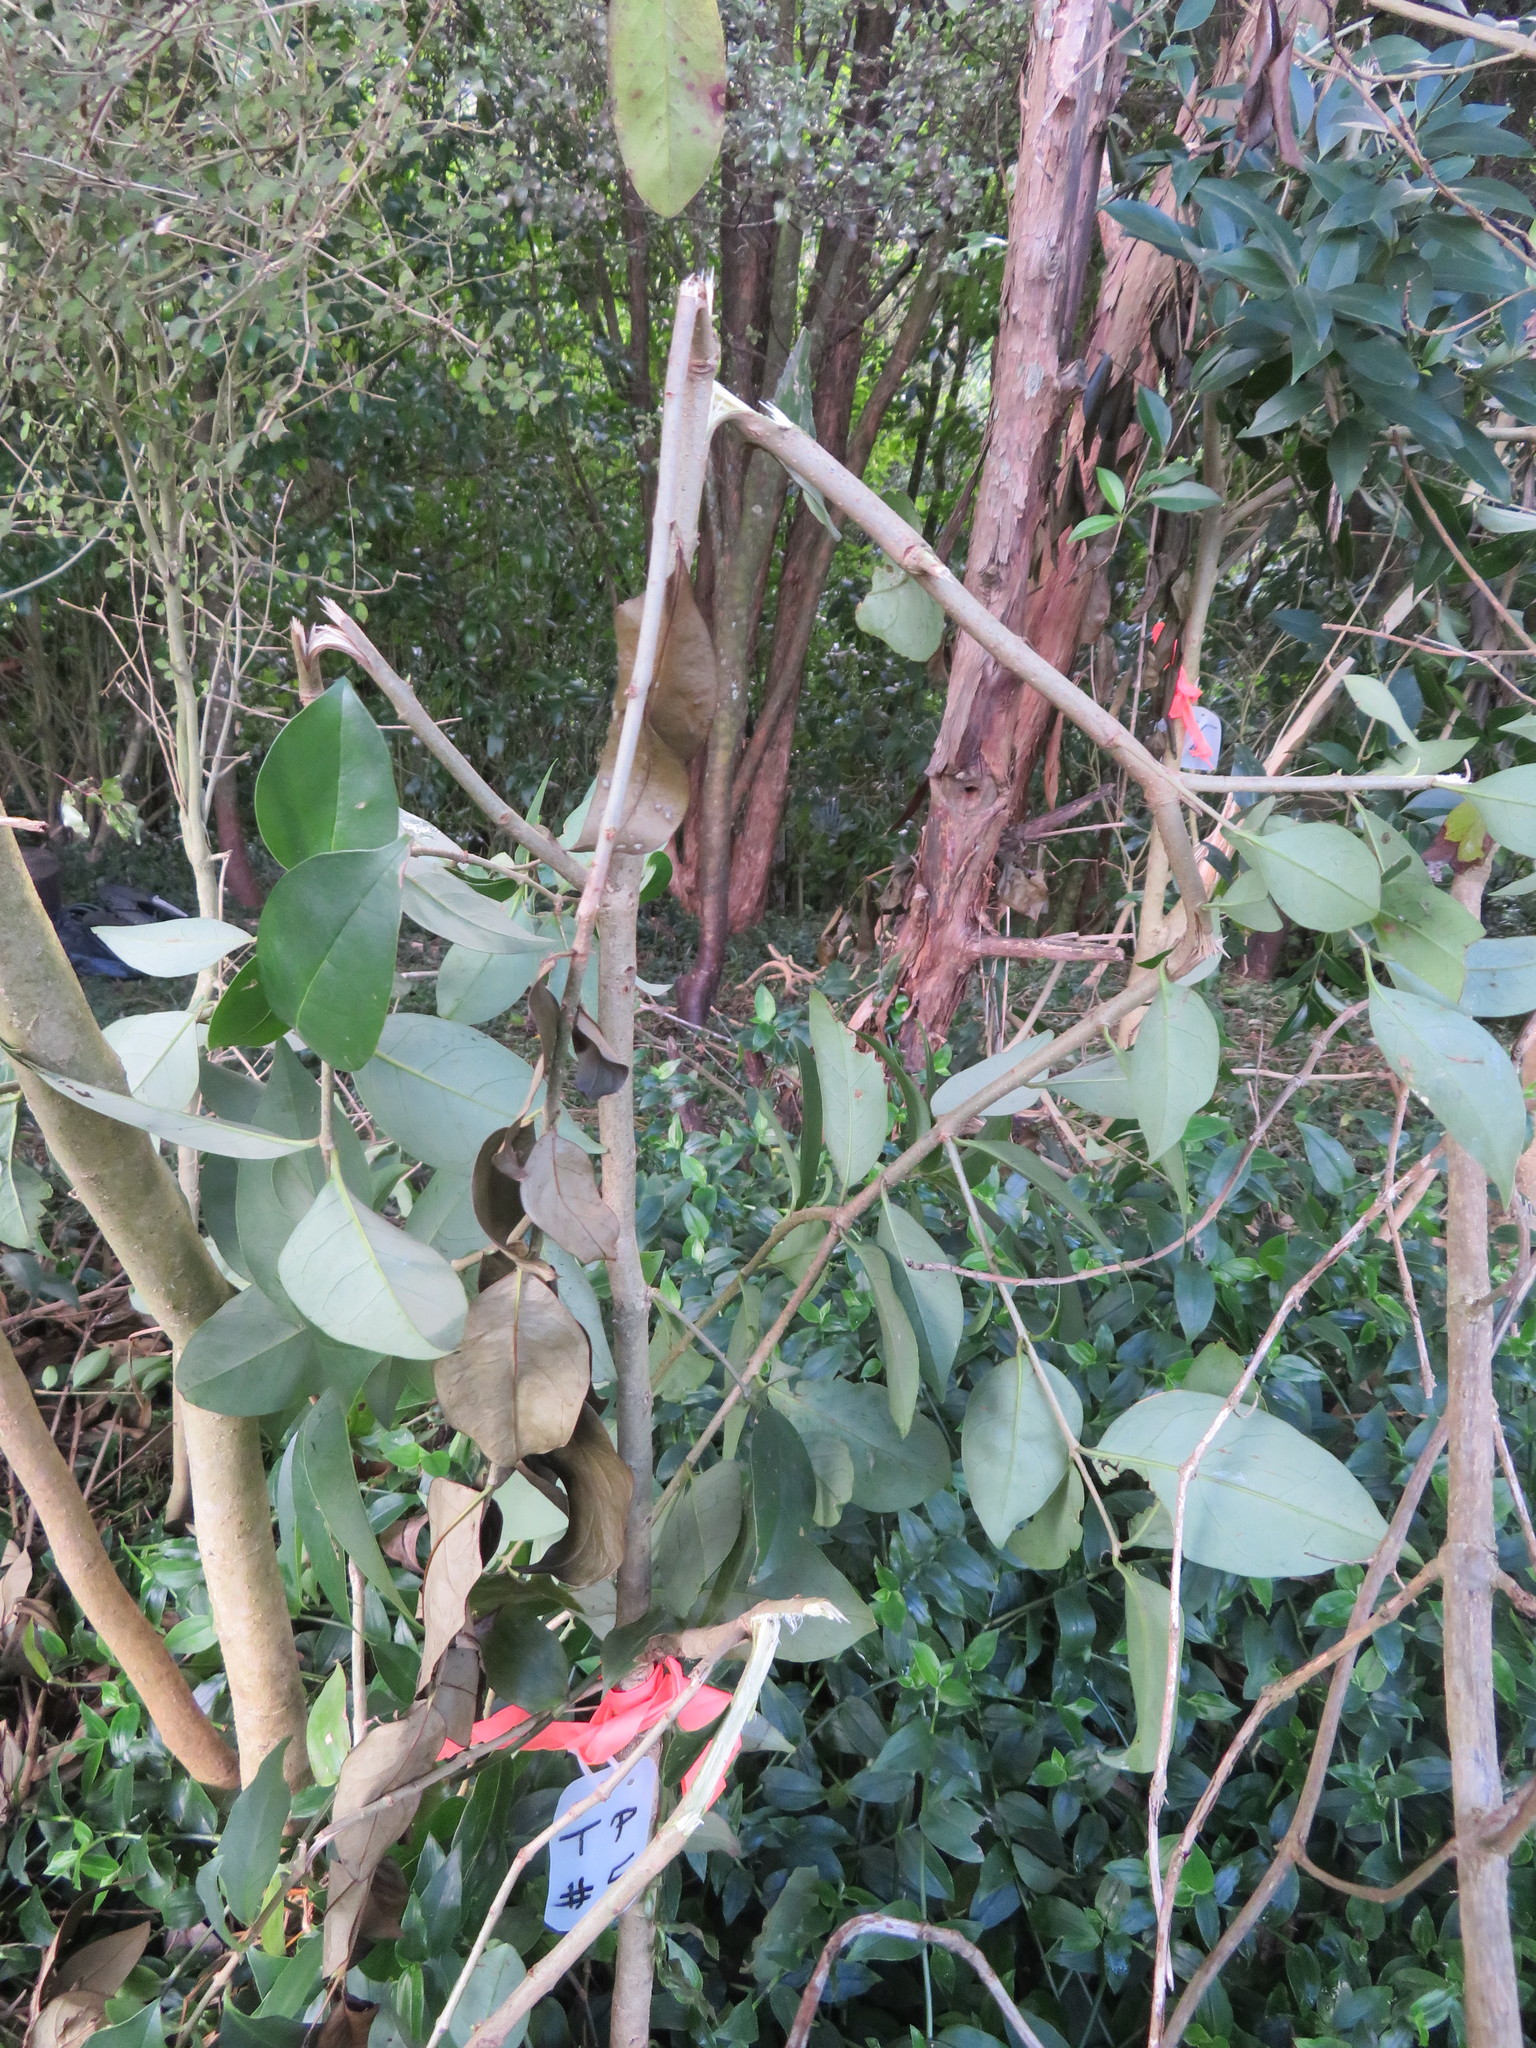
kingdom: Plantae
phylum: Tracheophyta
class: Magnoliopsida
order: Lamiales
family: Oleaceae
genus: Ligustrum
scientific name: Ligustrum lucidum
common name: Glossy privet
